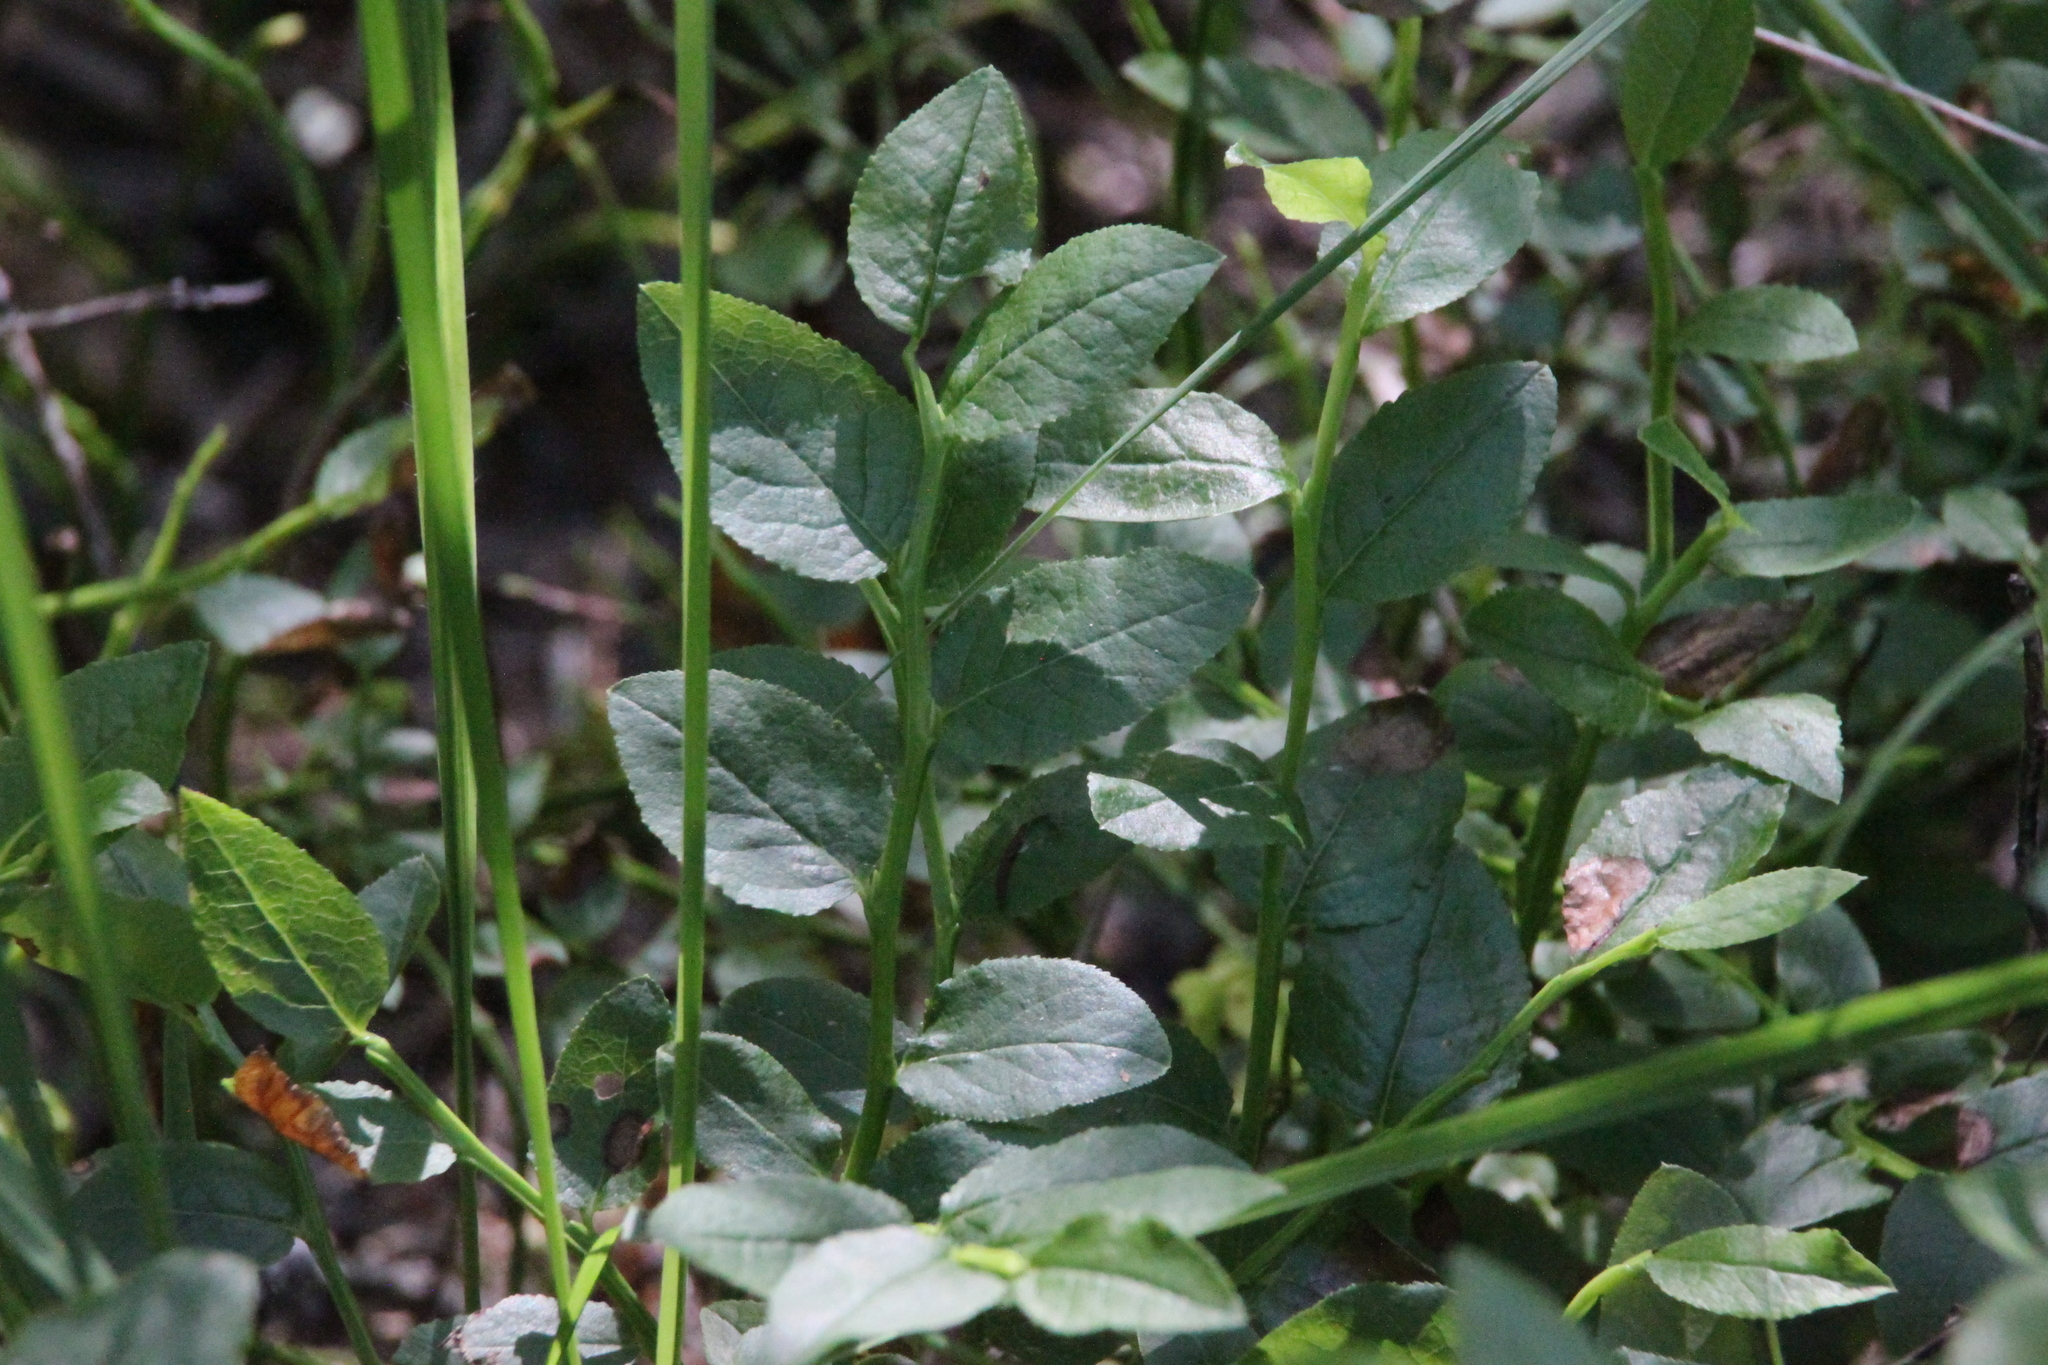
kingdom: Plantae
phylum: Tracheophyta
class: Magnoliopsida
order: Ericales
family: Ericaceae
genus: Vaccinium
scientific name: Vaccinium myrtillus
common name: Bilberry
